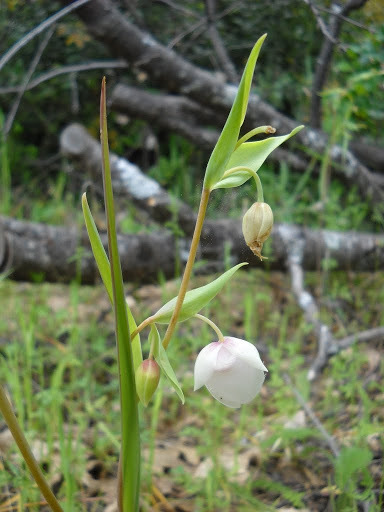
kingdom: Plantae
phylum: Tracheophyta
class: Liliopsida
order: Liliales
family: Liliaceae
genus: Calochortus
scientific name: Calochortus albus
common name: Fairy-lantern
